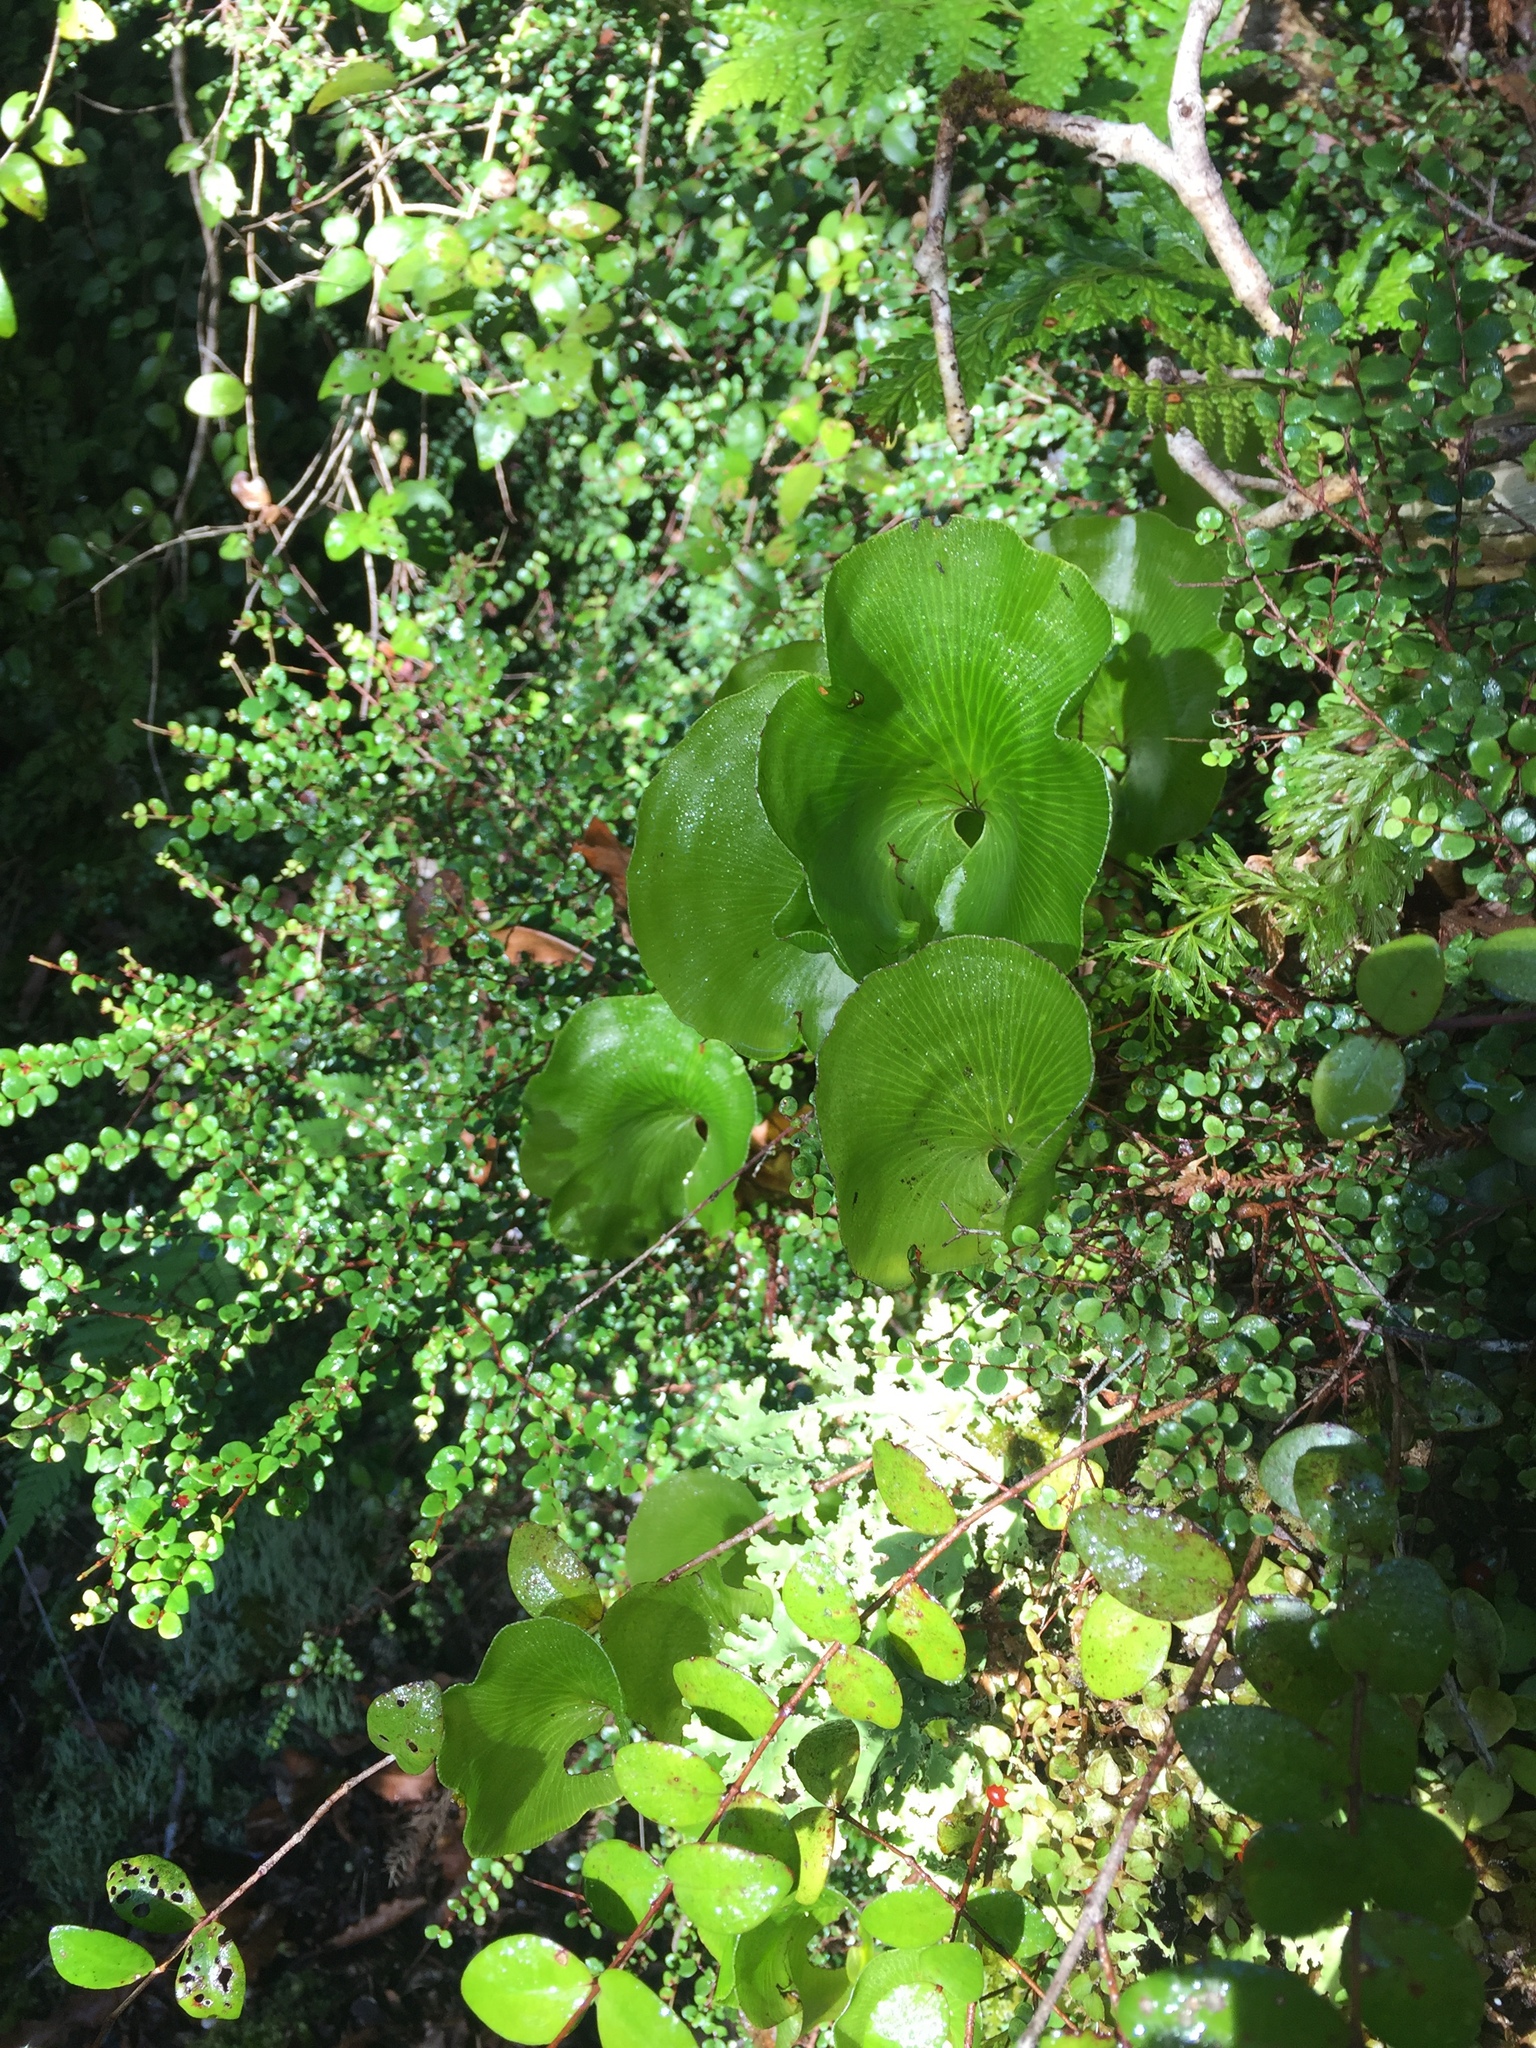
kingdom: Plantae
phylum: Tracheophyta
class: Polypodiopsida
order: Hymenophyllales
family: Hymenophyllaceae
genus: Hymenophyllum
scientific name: Hymenophyllum nephrophyllum
